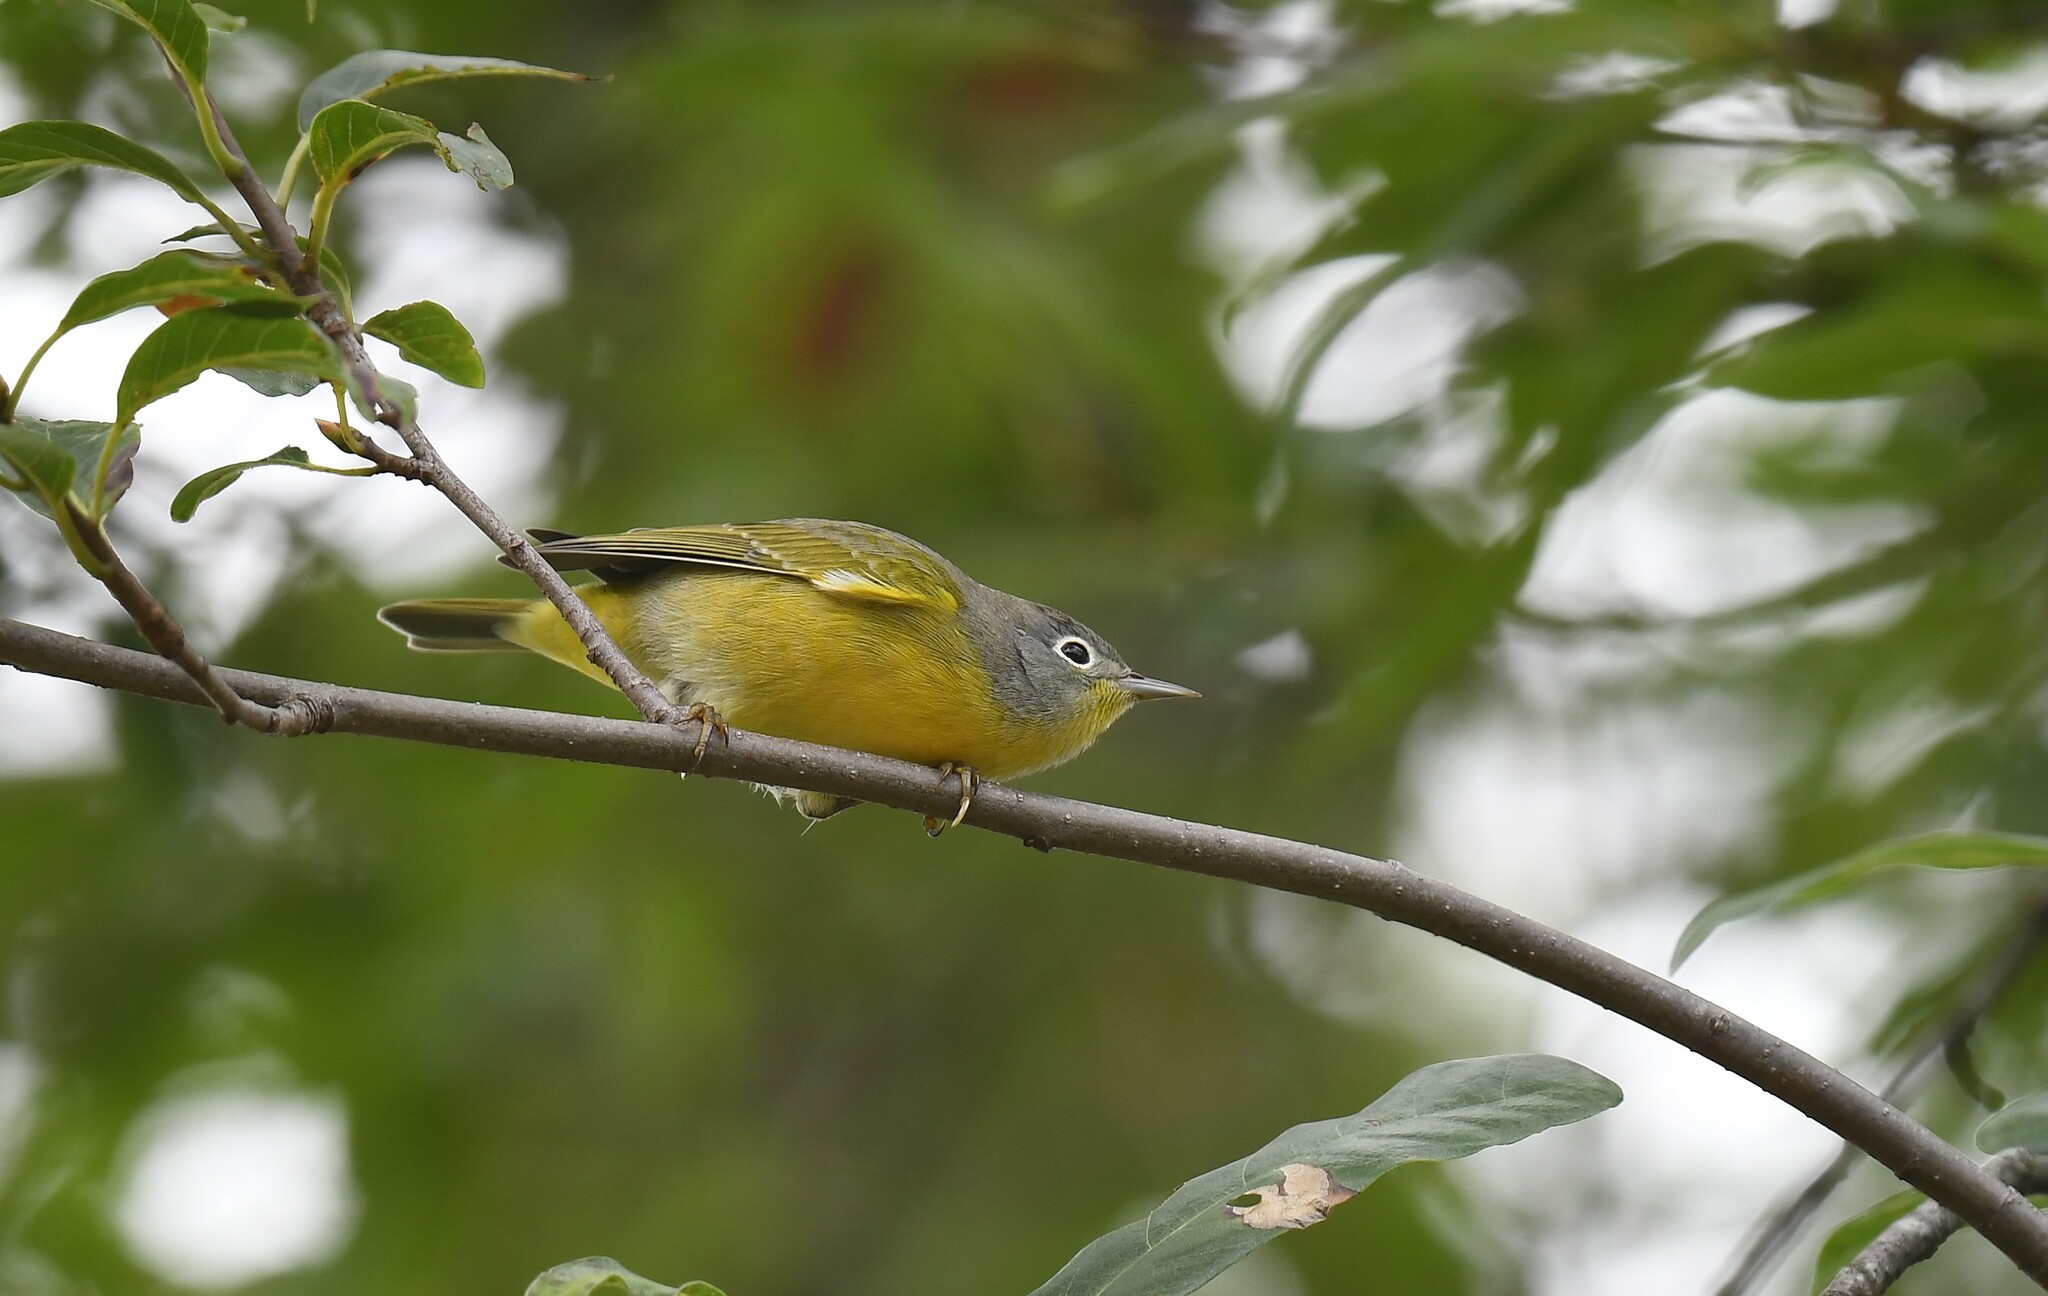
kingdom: Animalia
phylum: Chordata
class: Aves
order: Passeriformes
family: Parulidae
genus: Leiothlypis
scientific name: Leiothlypis ruficapilla
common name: Nashville warbler
